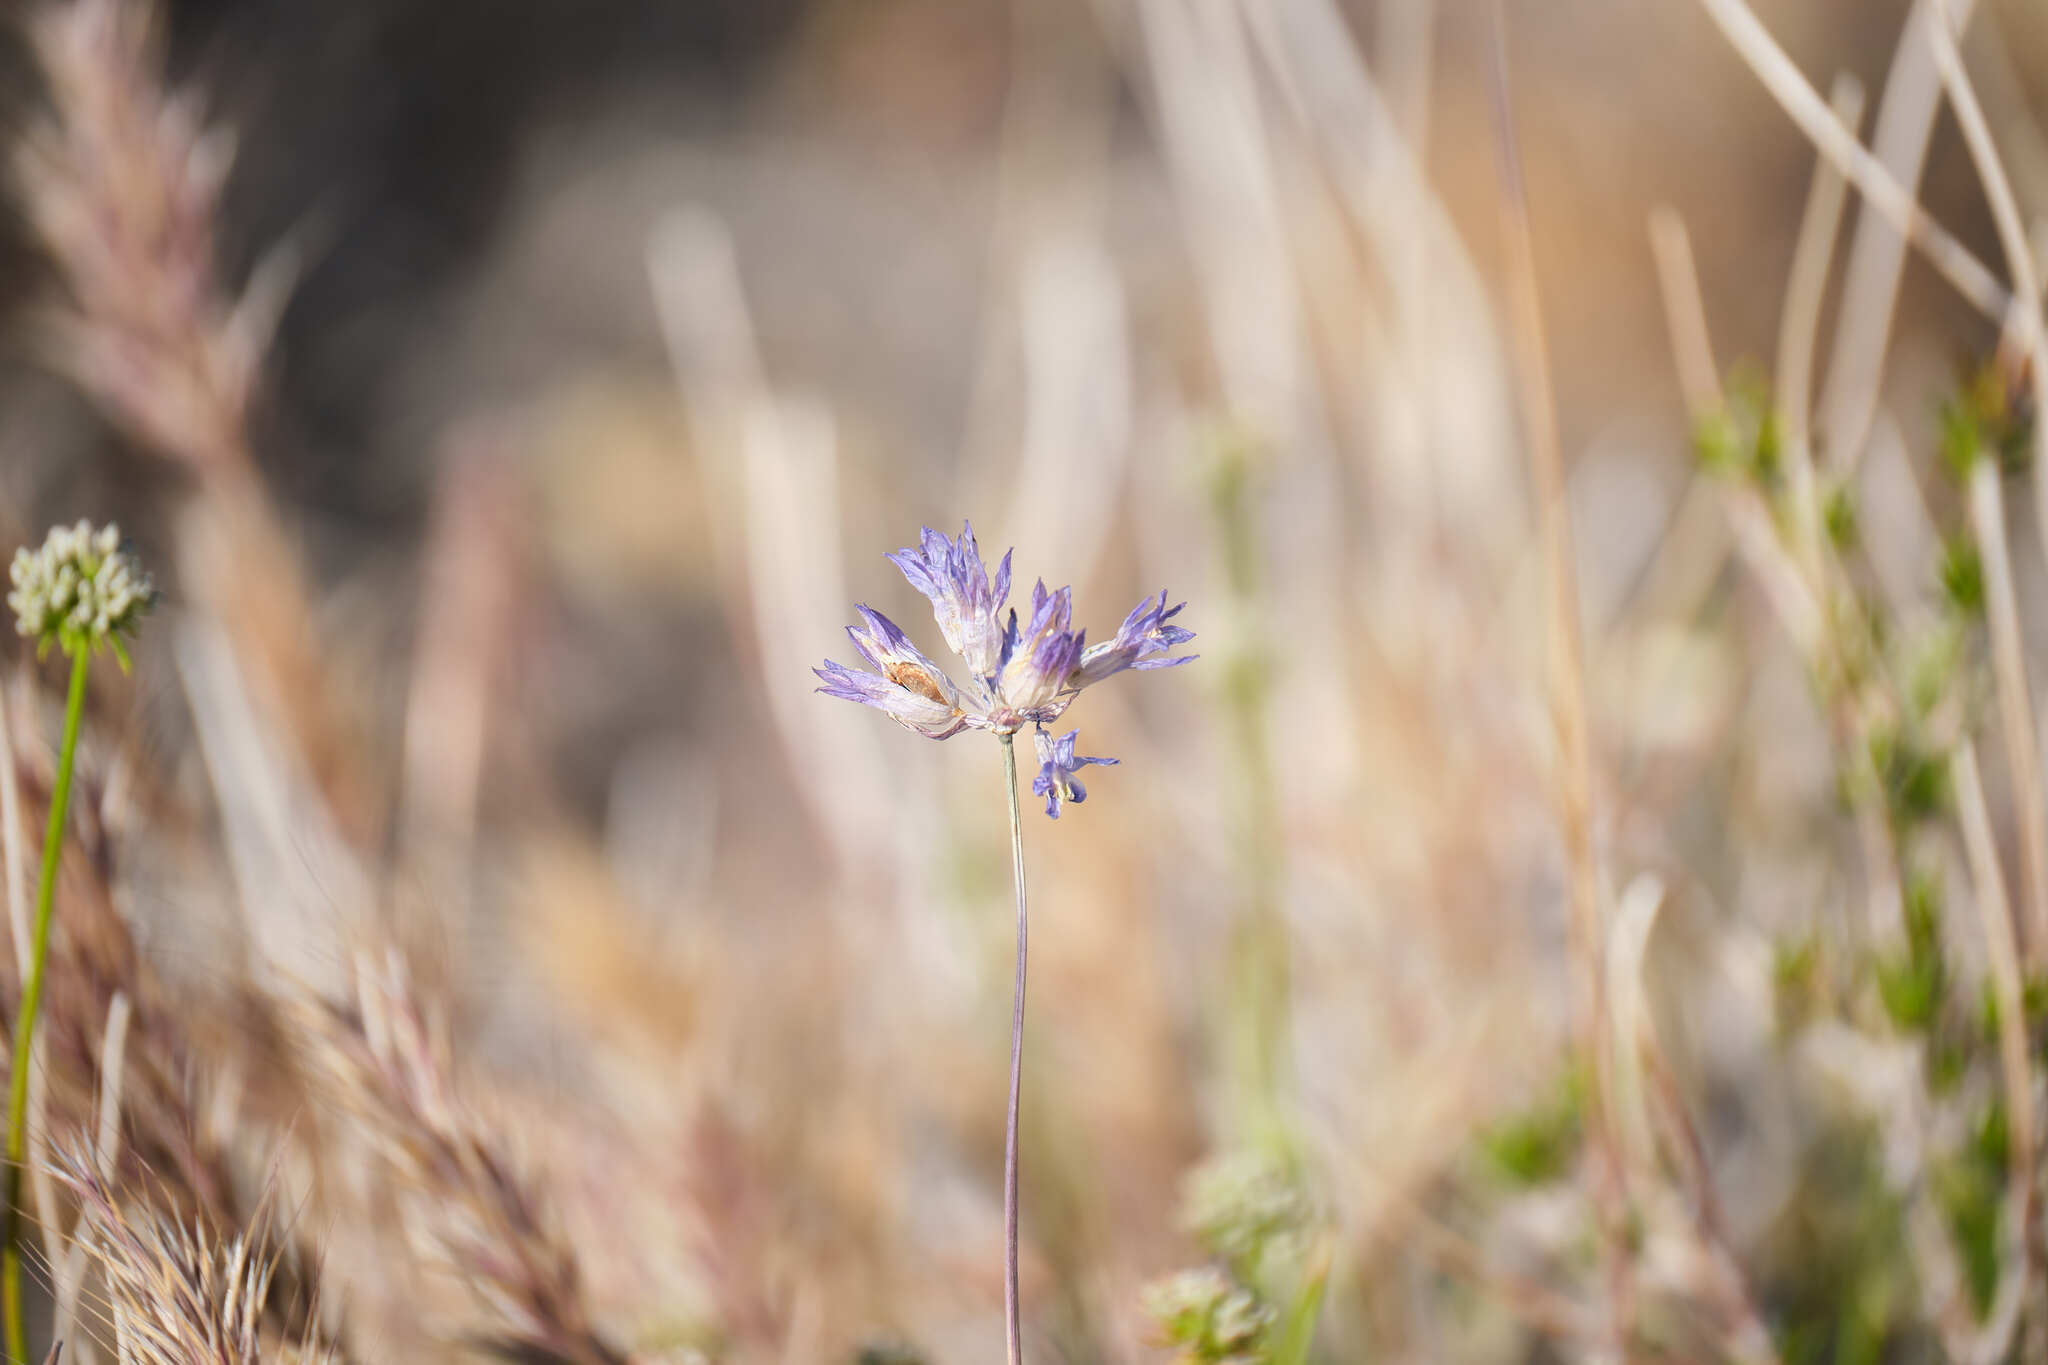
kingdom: Plantae
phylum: Tracheophyta
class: Liliopsida
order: Asparagales
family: Asparagaceae
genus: Dipterostemon
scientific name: Dipterostemon capitatus
